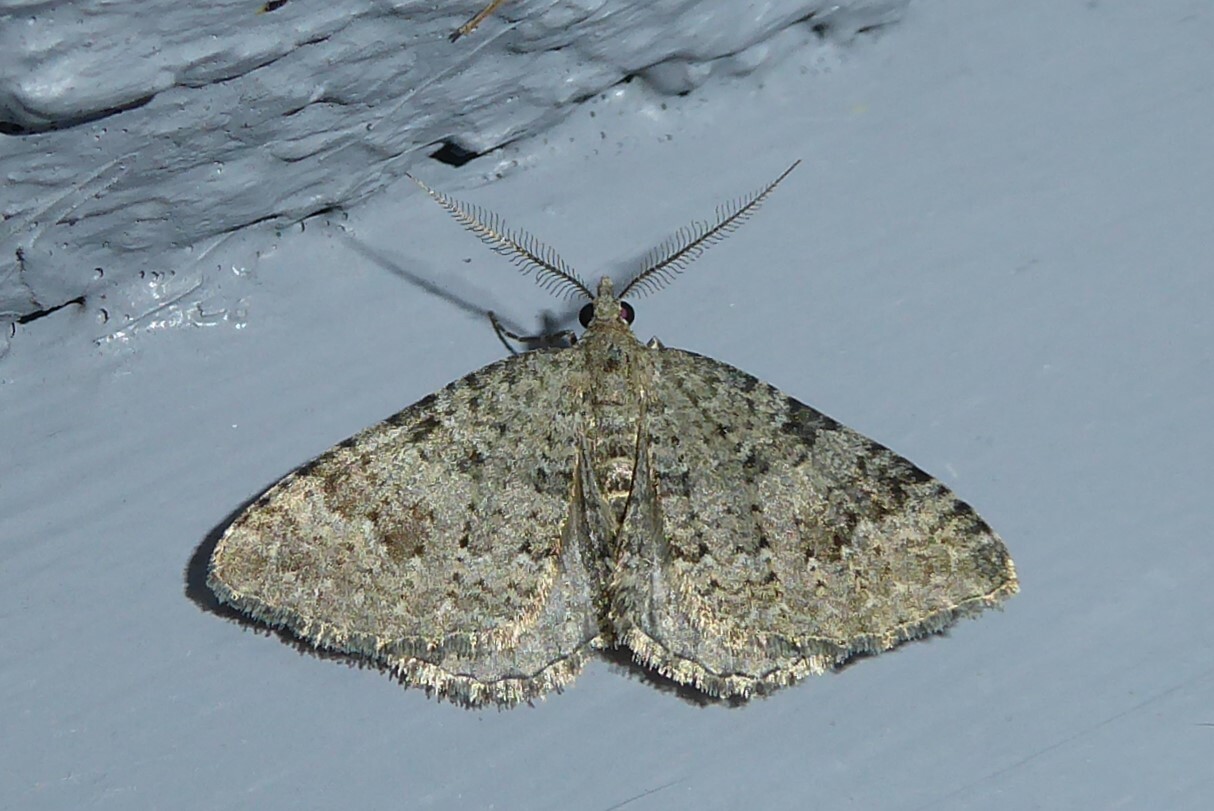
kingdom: Animalia
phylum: Arthropoda
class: Insecta
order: Lepidoptera
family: Geometridae
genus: Helastia
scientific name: Helastia corcularia
